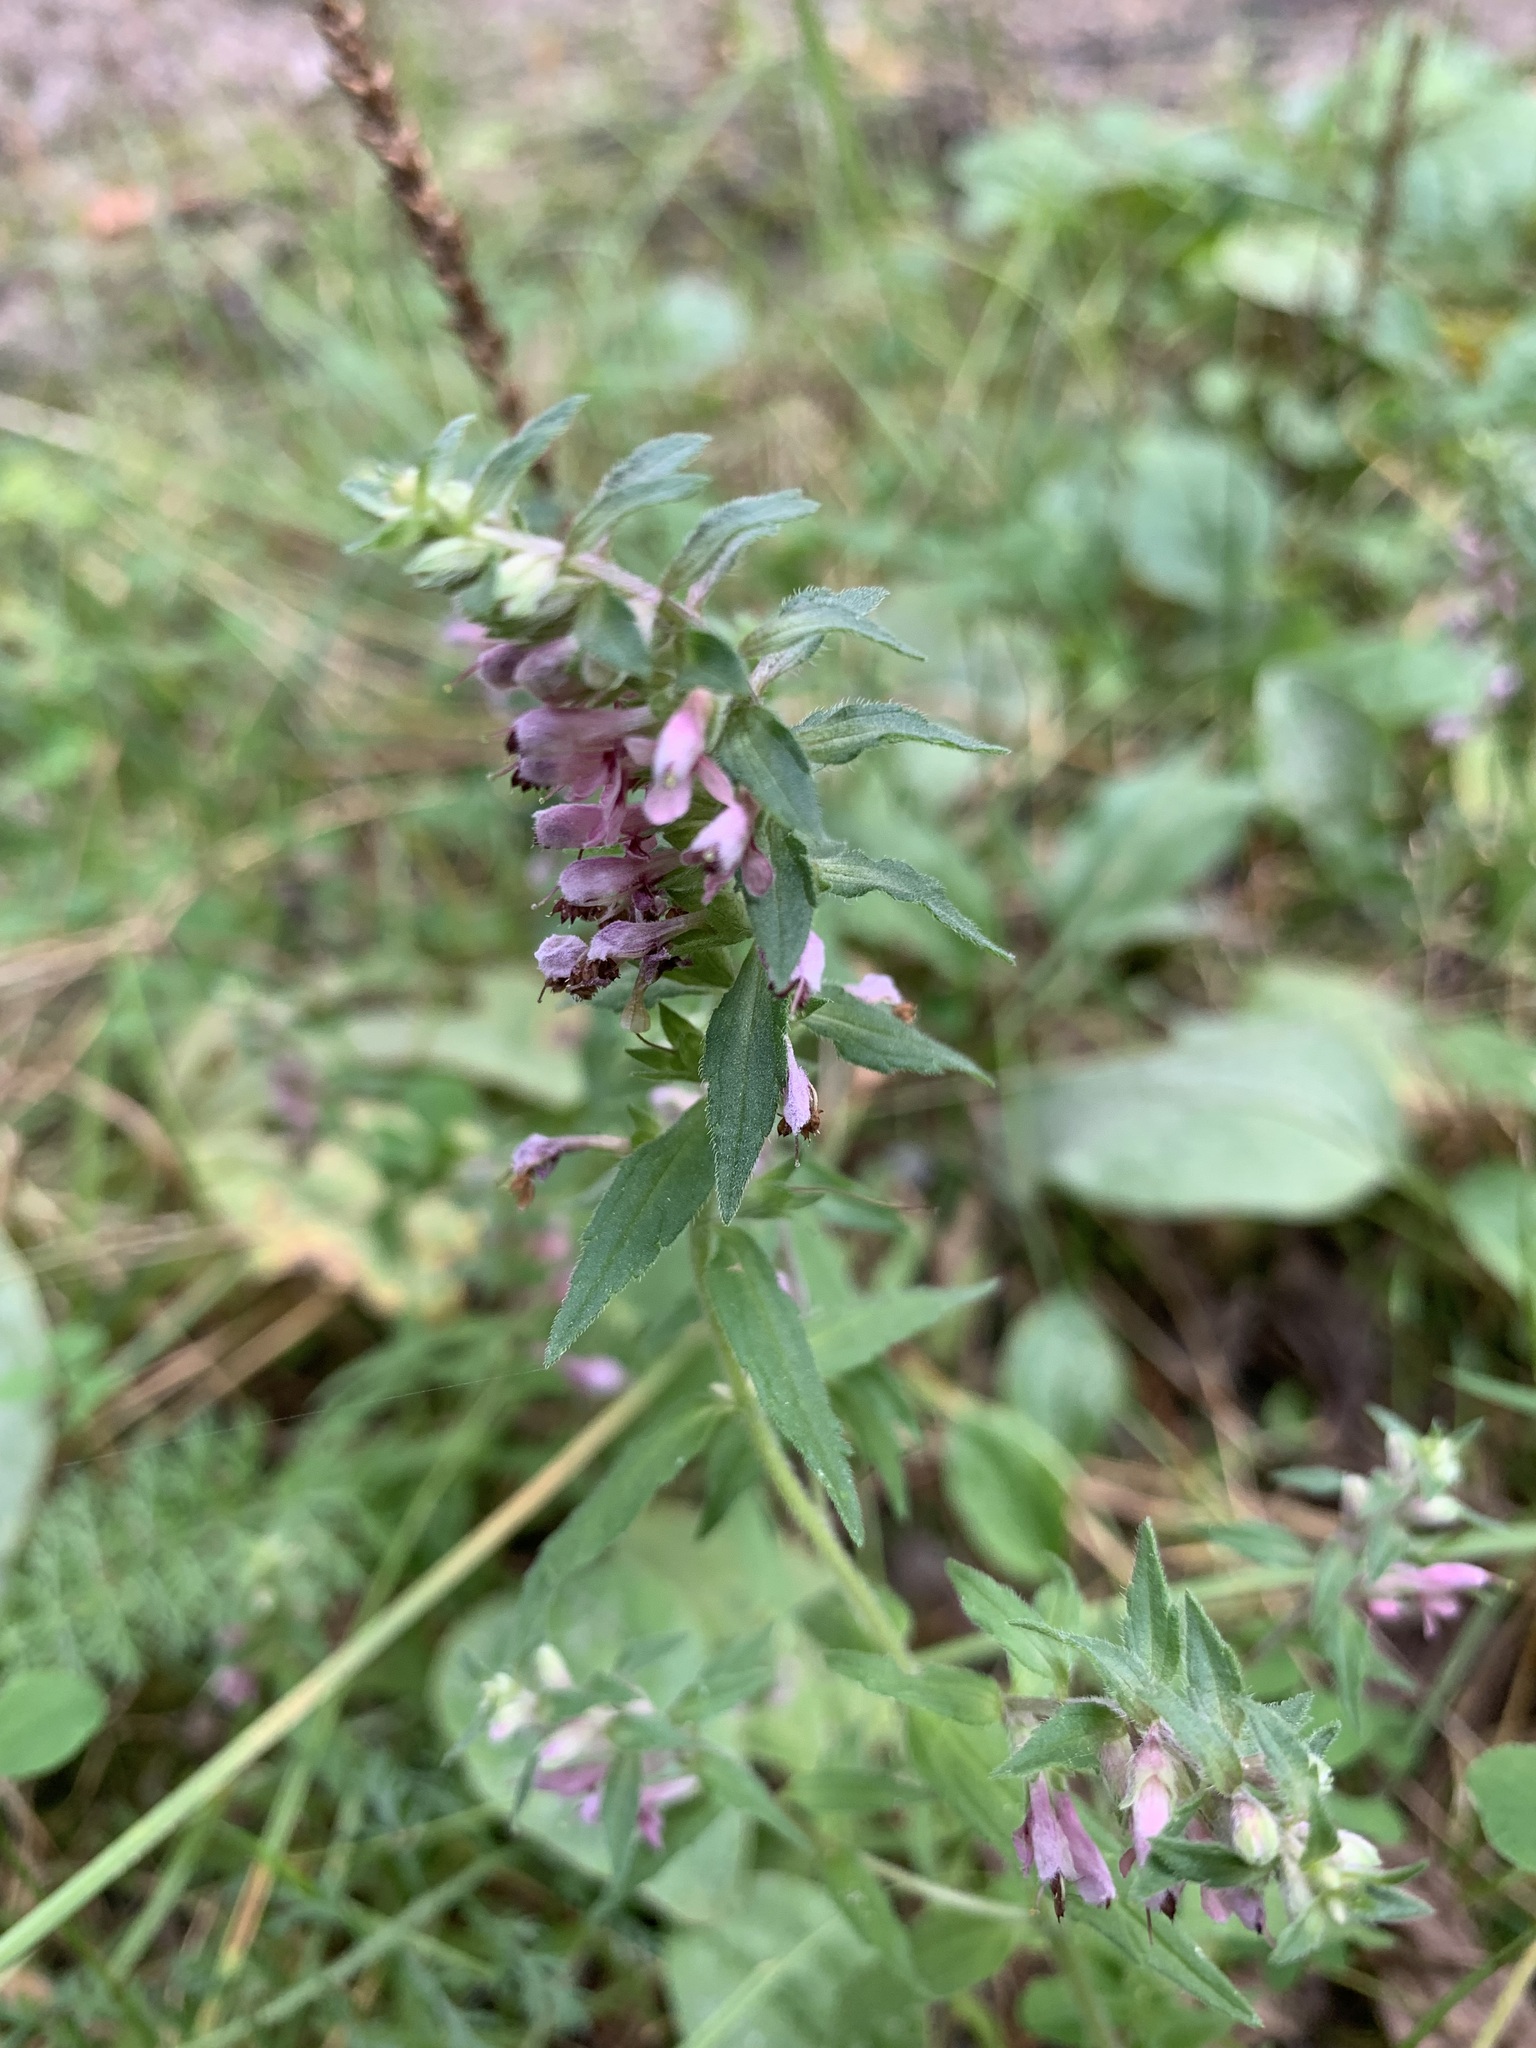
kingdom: Plantae
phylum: Tracheophyta
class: Magnoliopsida
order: Lamiales
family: Orobanchaceae
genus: Odontites
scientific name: Odontites vulgaris
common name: Broomrape
